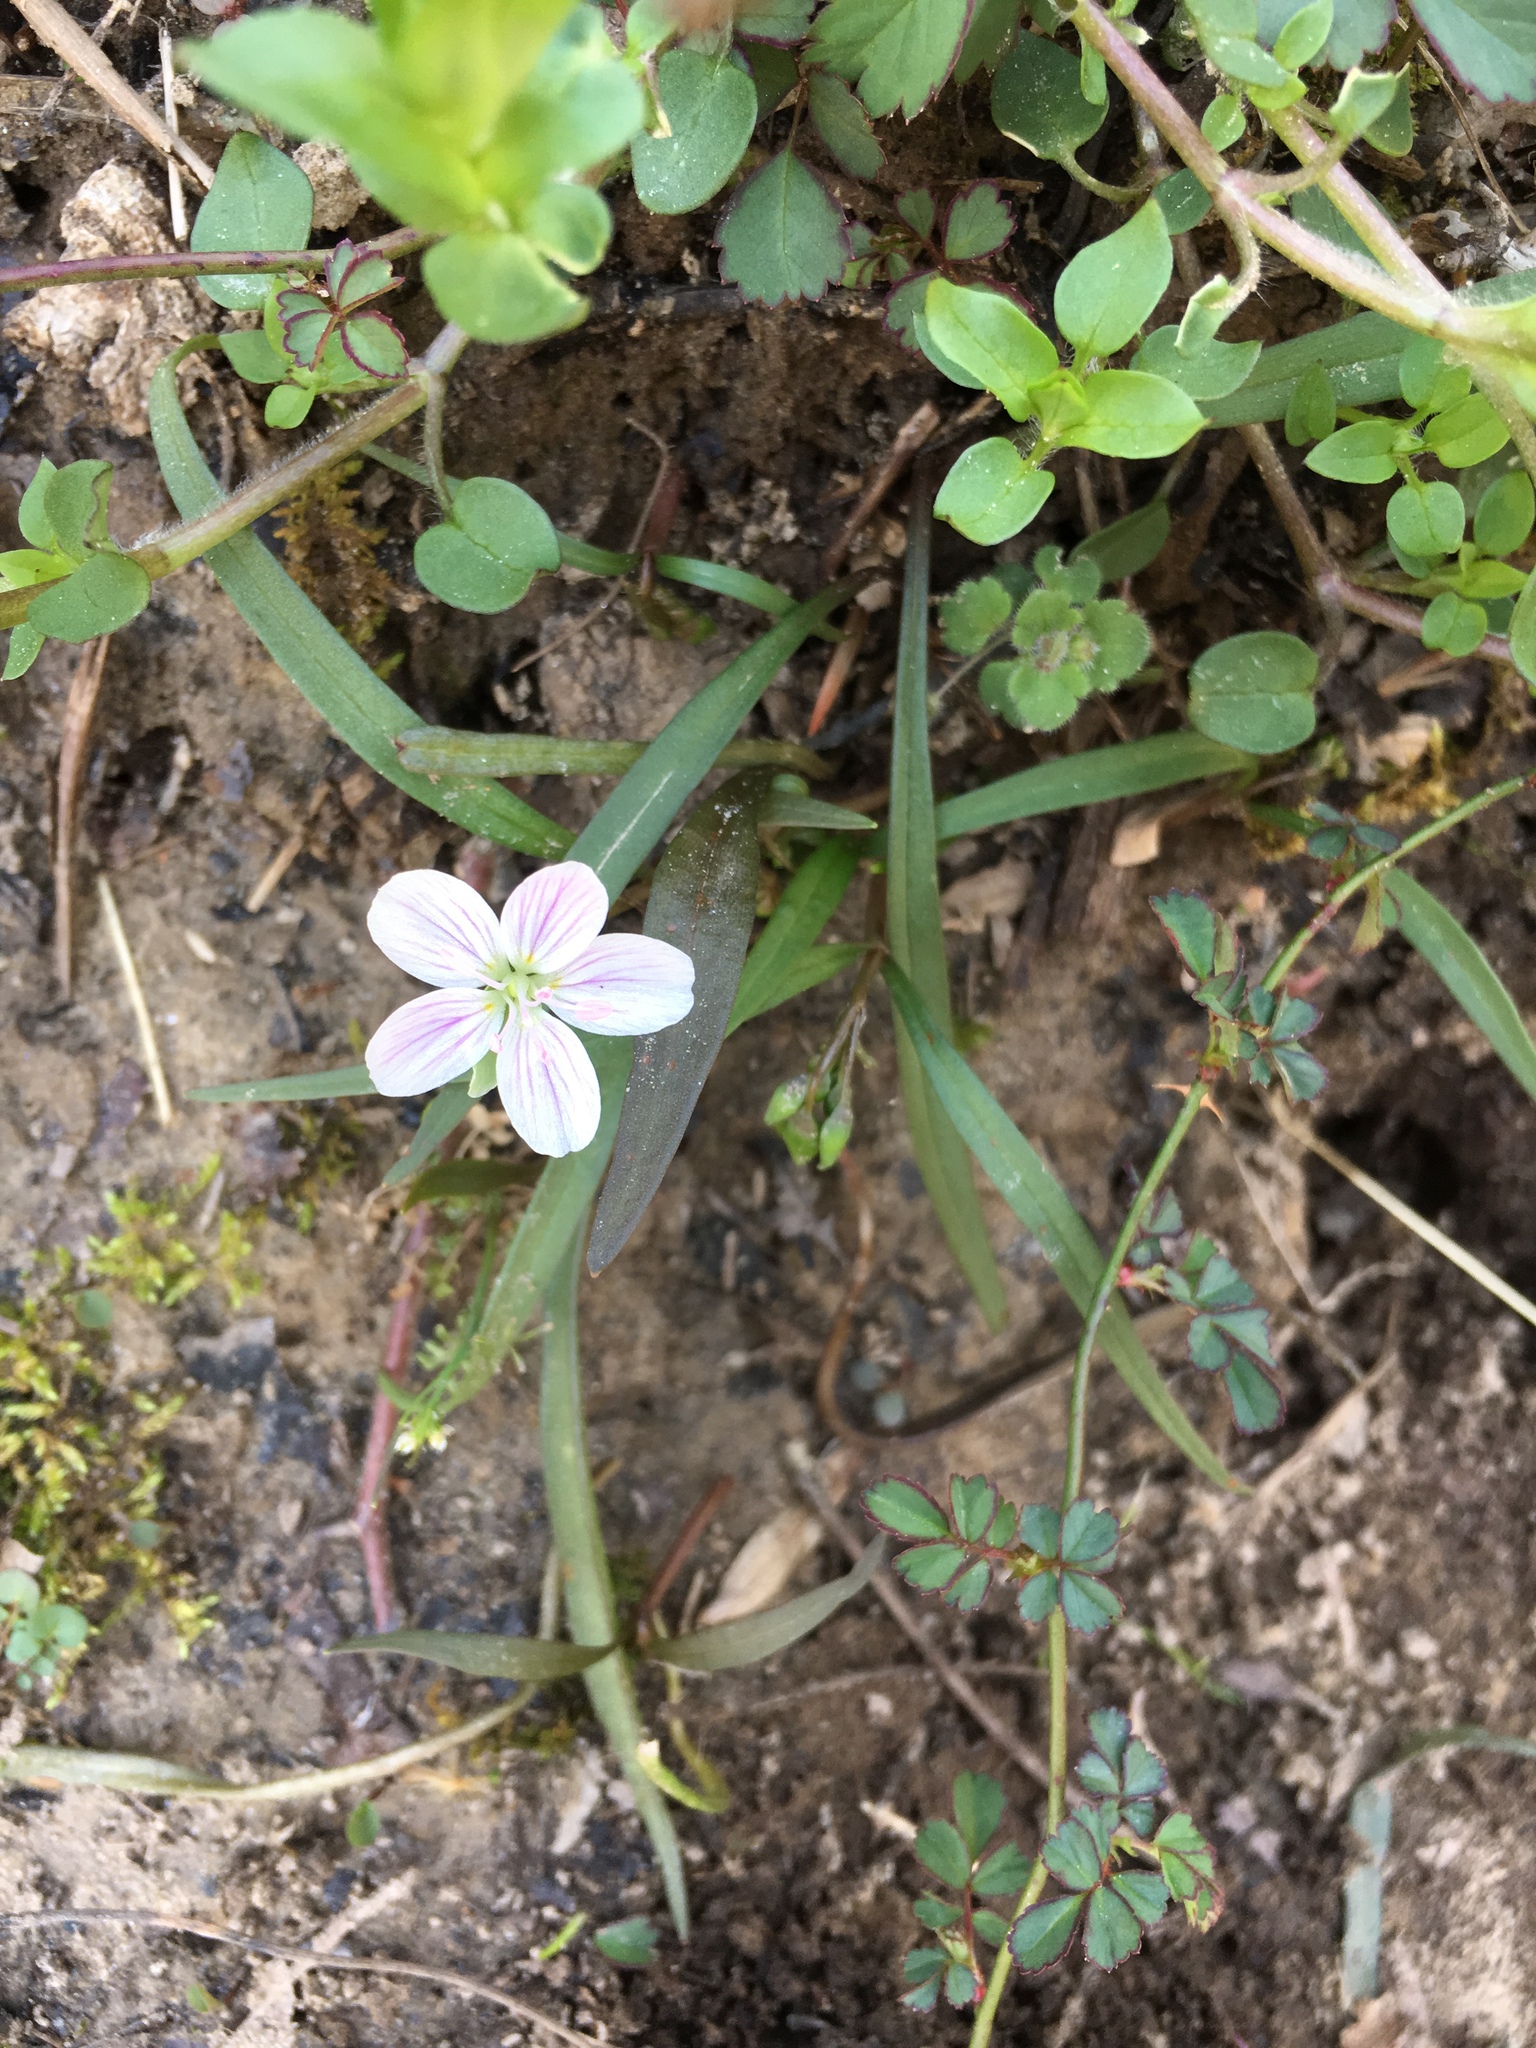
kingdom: Plantae
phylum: Tracheophyta
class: Magnoliopsida
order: Caryophyllales
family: Montiaceae
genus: Claytonia
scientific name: Claytonia virginica
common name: Virginia springbeauty
